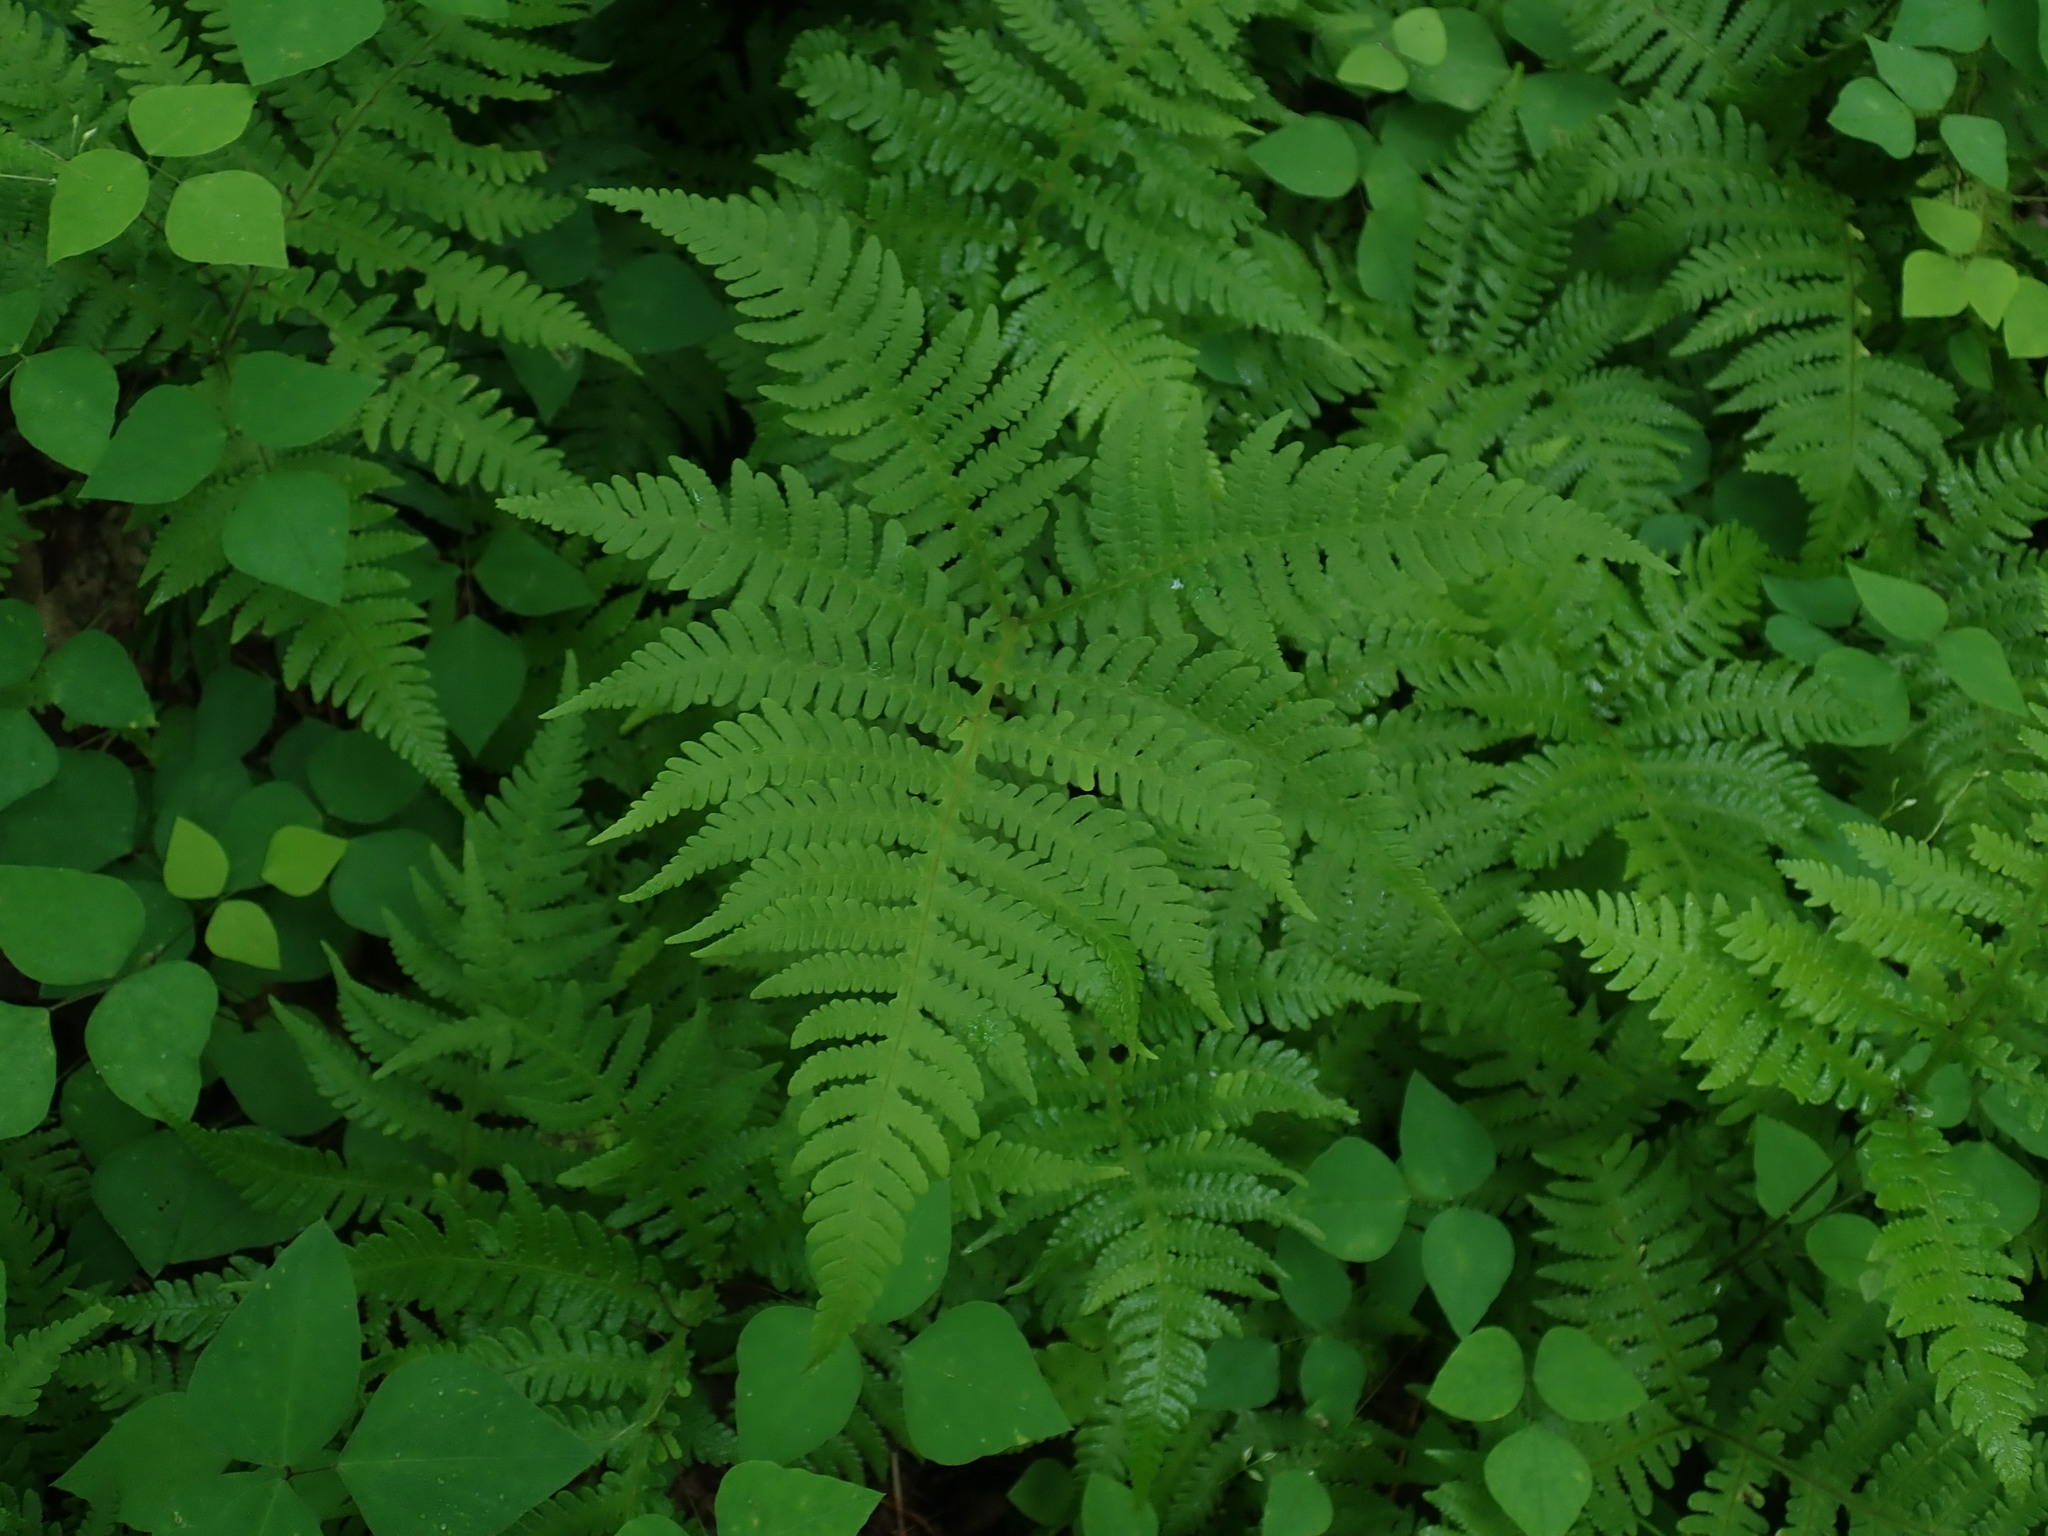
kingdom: Plantae
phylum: Tracheophyta
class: Polypodiopsida
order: Polypodiales
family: Thelypteridaceae
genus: Phegopteris
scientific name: Phegopteris hexagonoptera
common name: Broad beech fern
